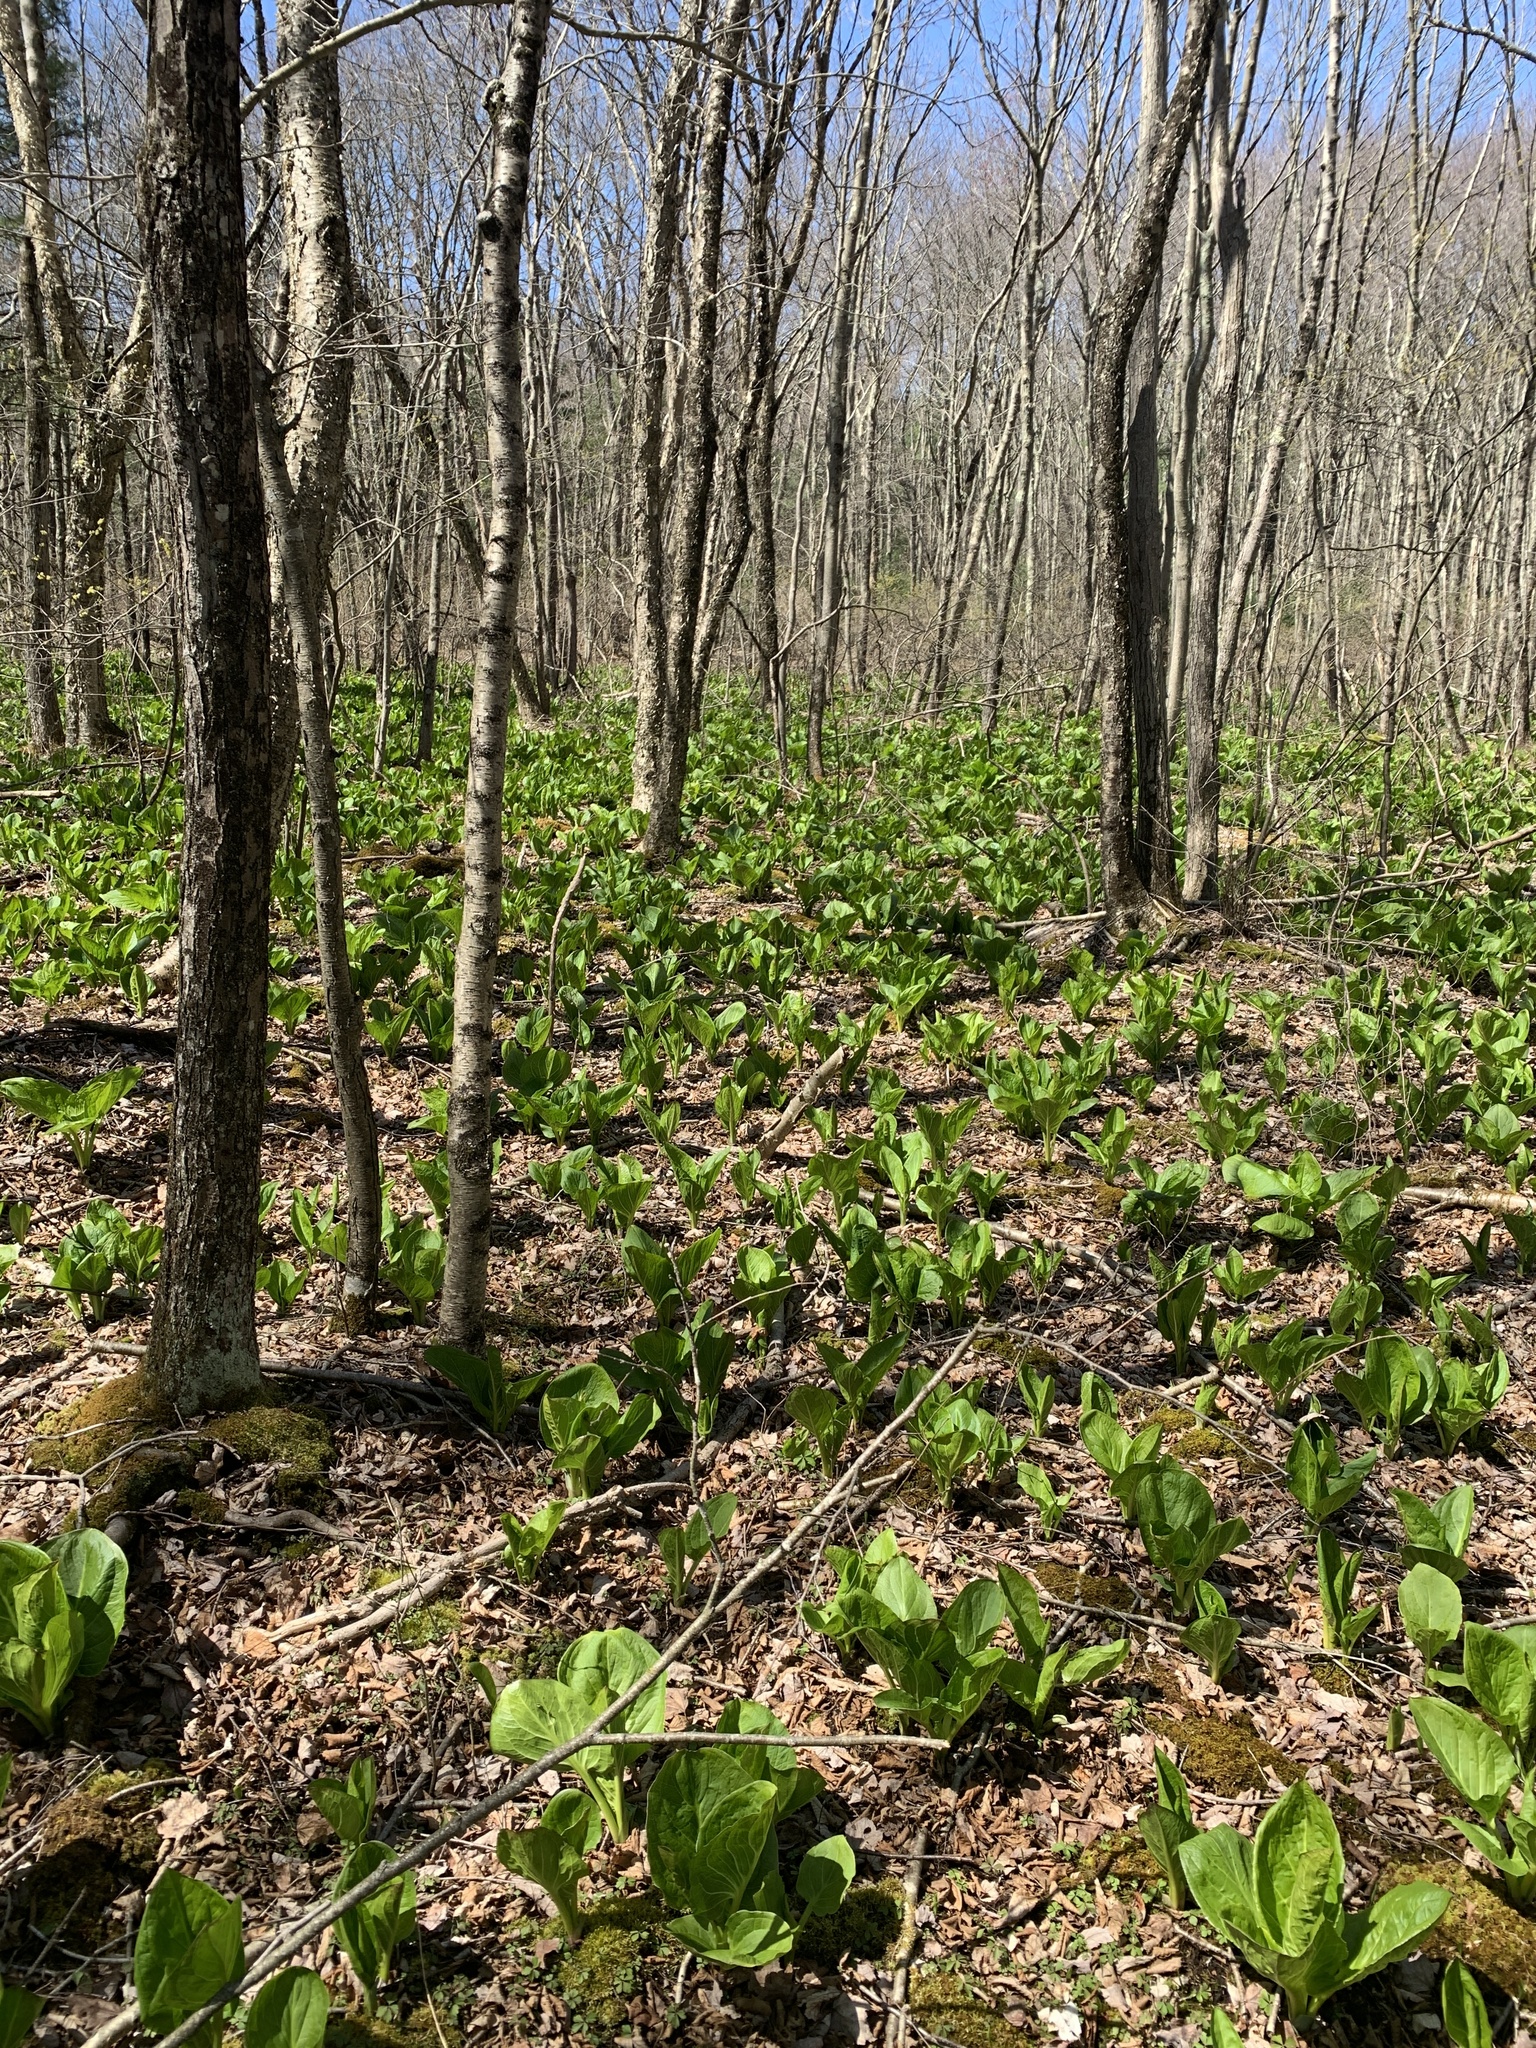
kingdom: Plantae
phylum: Tracheophyta
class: Liliopsida
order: Alismatales
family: Araceae
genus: Symplocarpus
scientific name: Symplocarpus foetidus
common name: Eastern skunk cabbage
